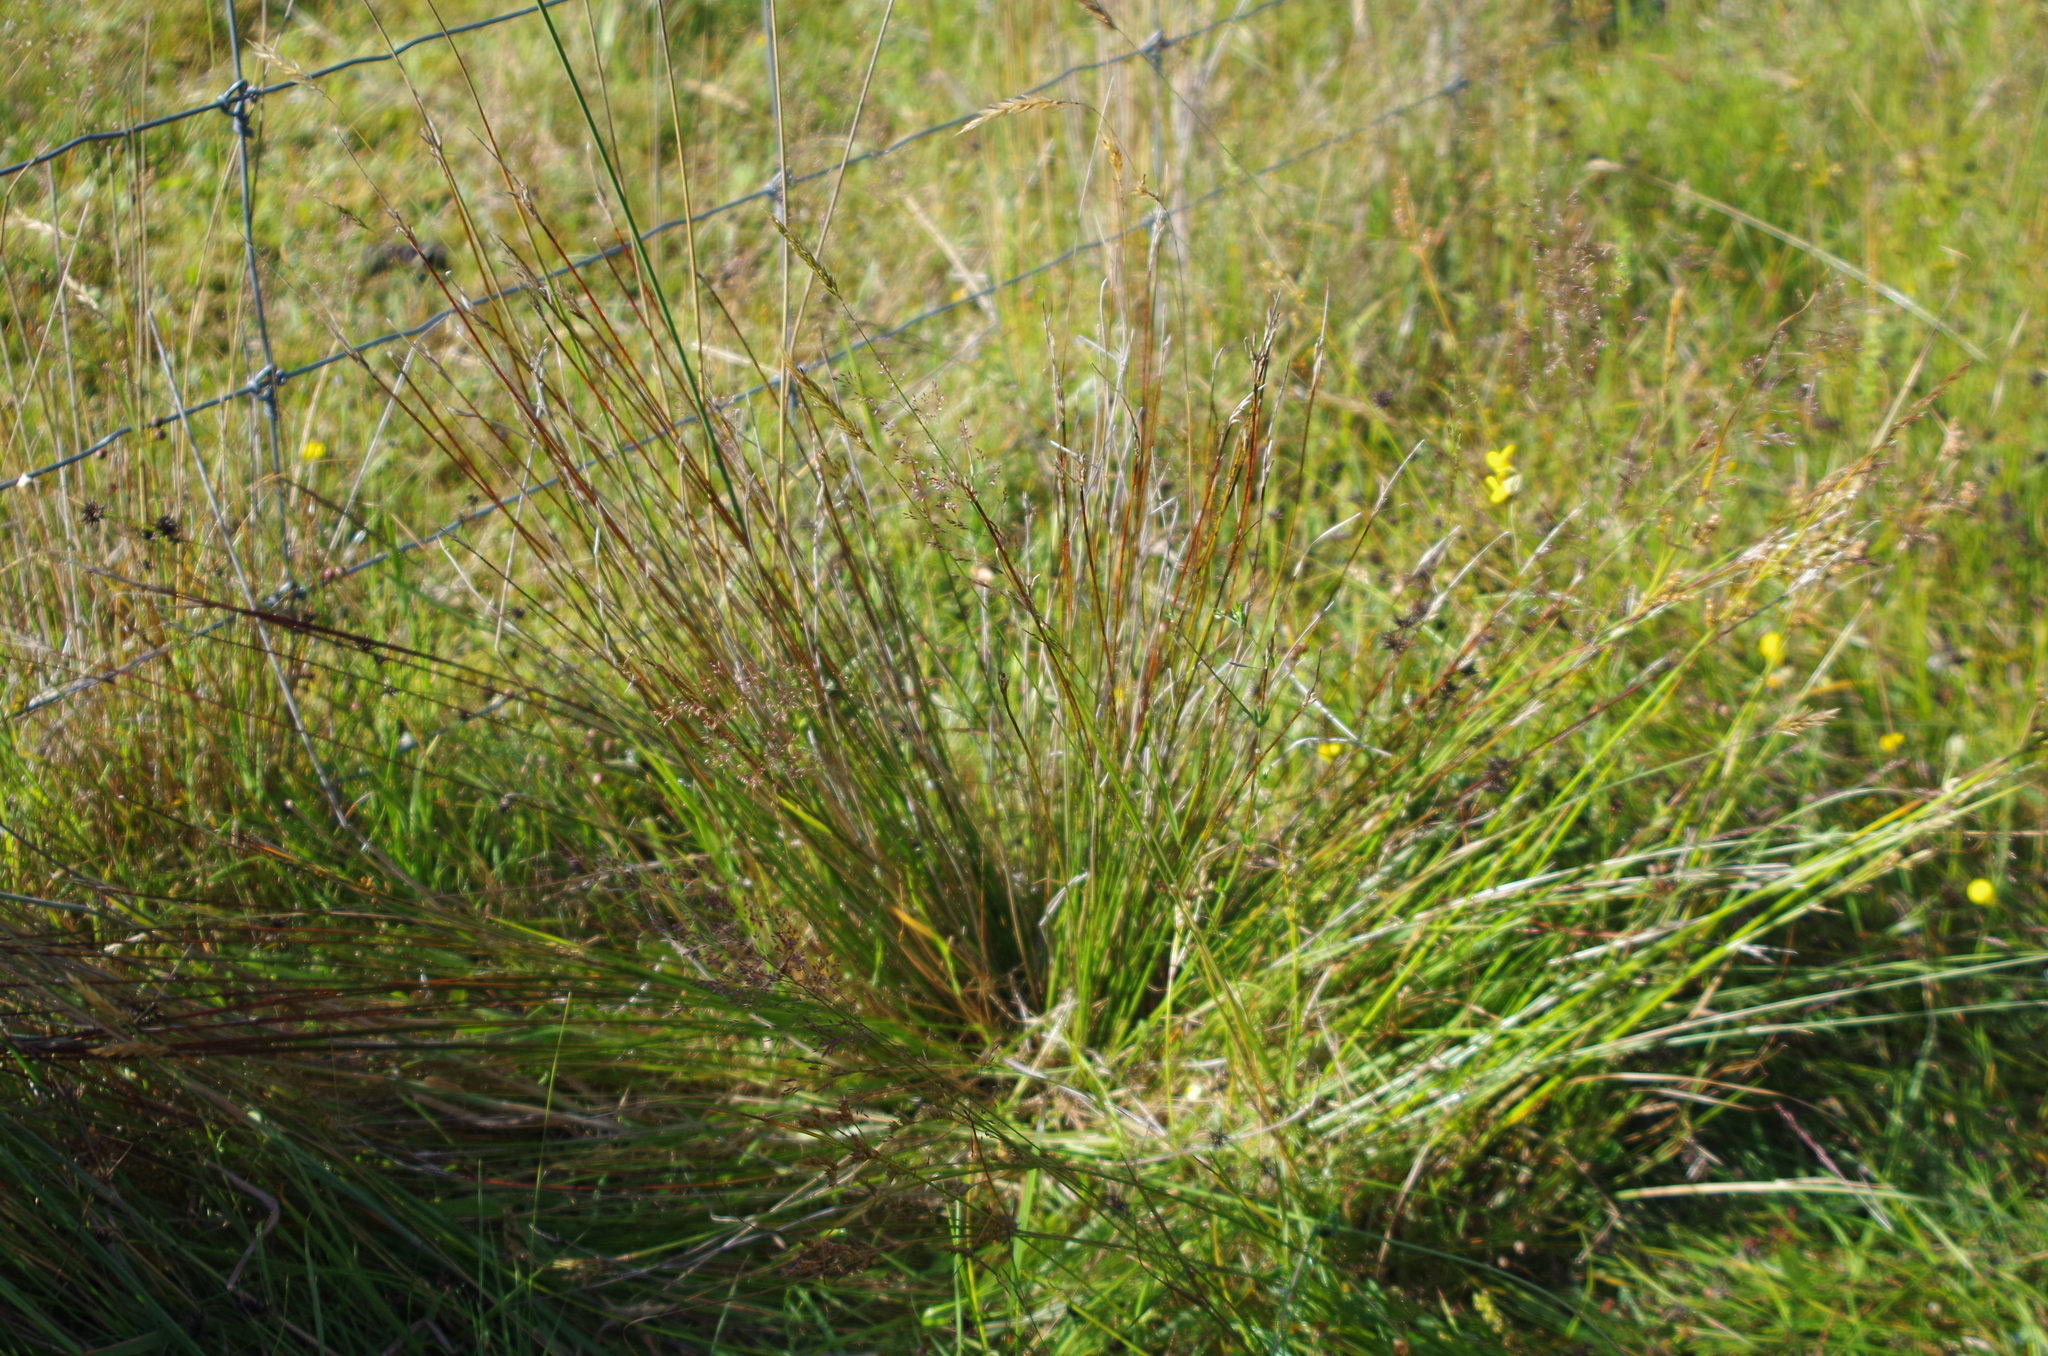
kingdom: Plantae
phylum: Tracheophyta
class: Liliopsida
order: Poales
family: Cyperaceae
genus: Schoenus
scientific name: Schoenus pauciflorus
